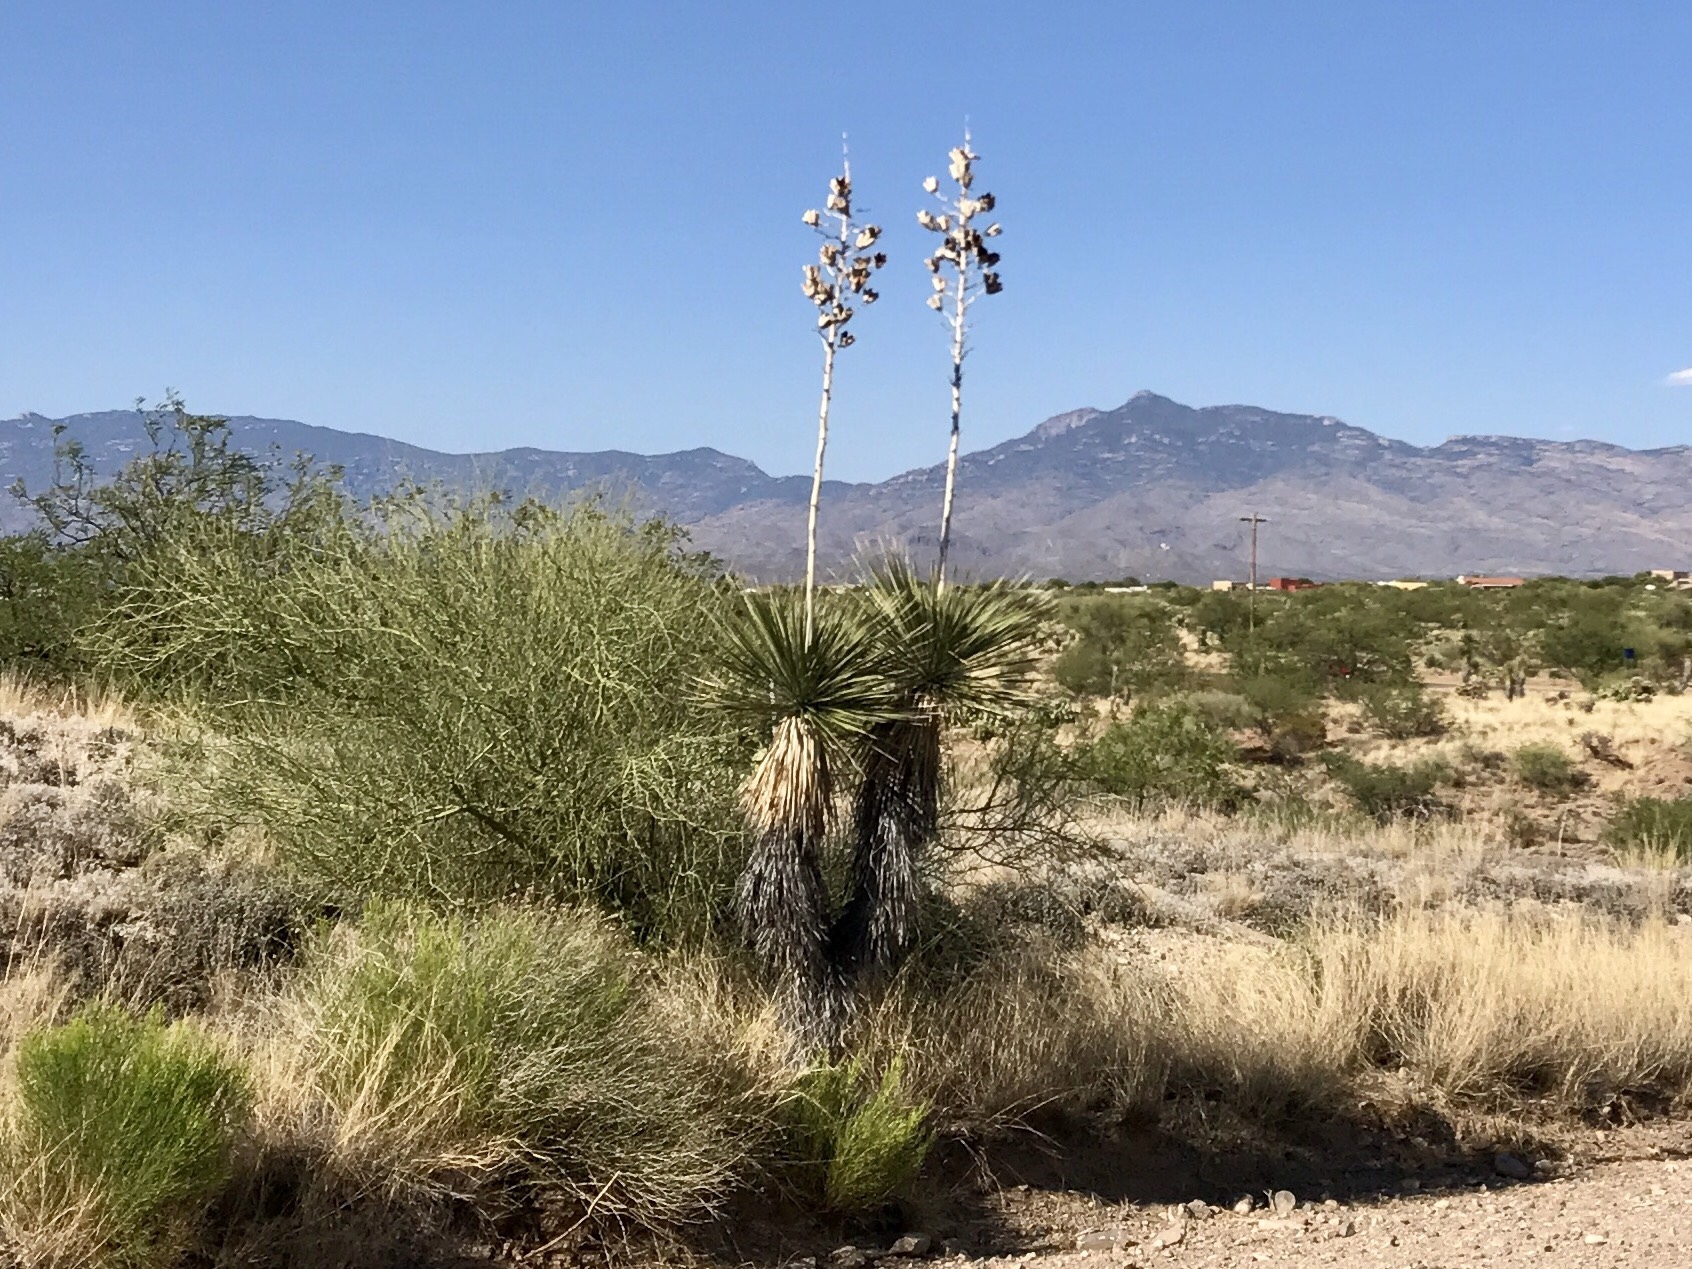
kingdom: Plantae
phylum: Tracheophyta
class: Liliopsida
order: Asparagales
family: Asparagaceae
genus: Yucca
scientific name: Yucca elata
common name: Palmella
